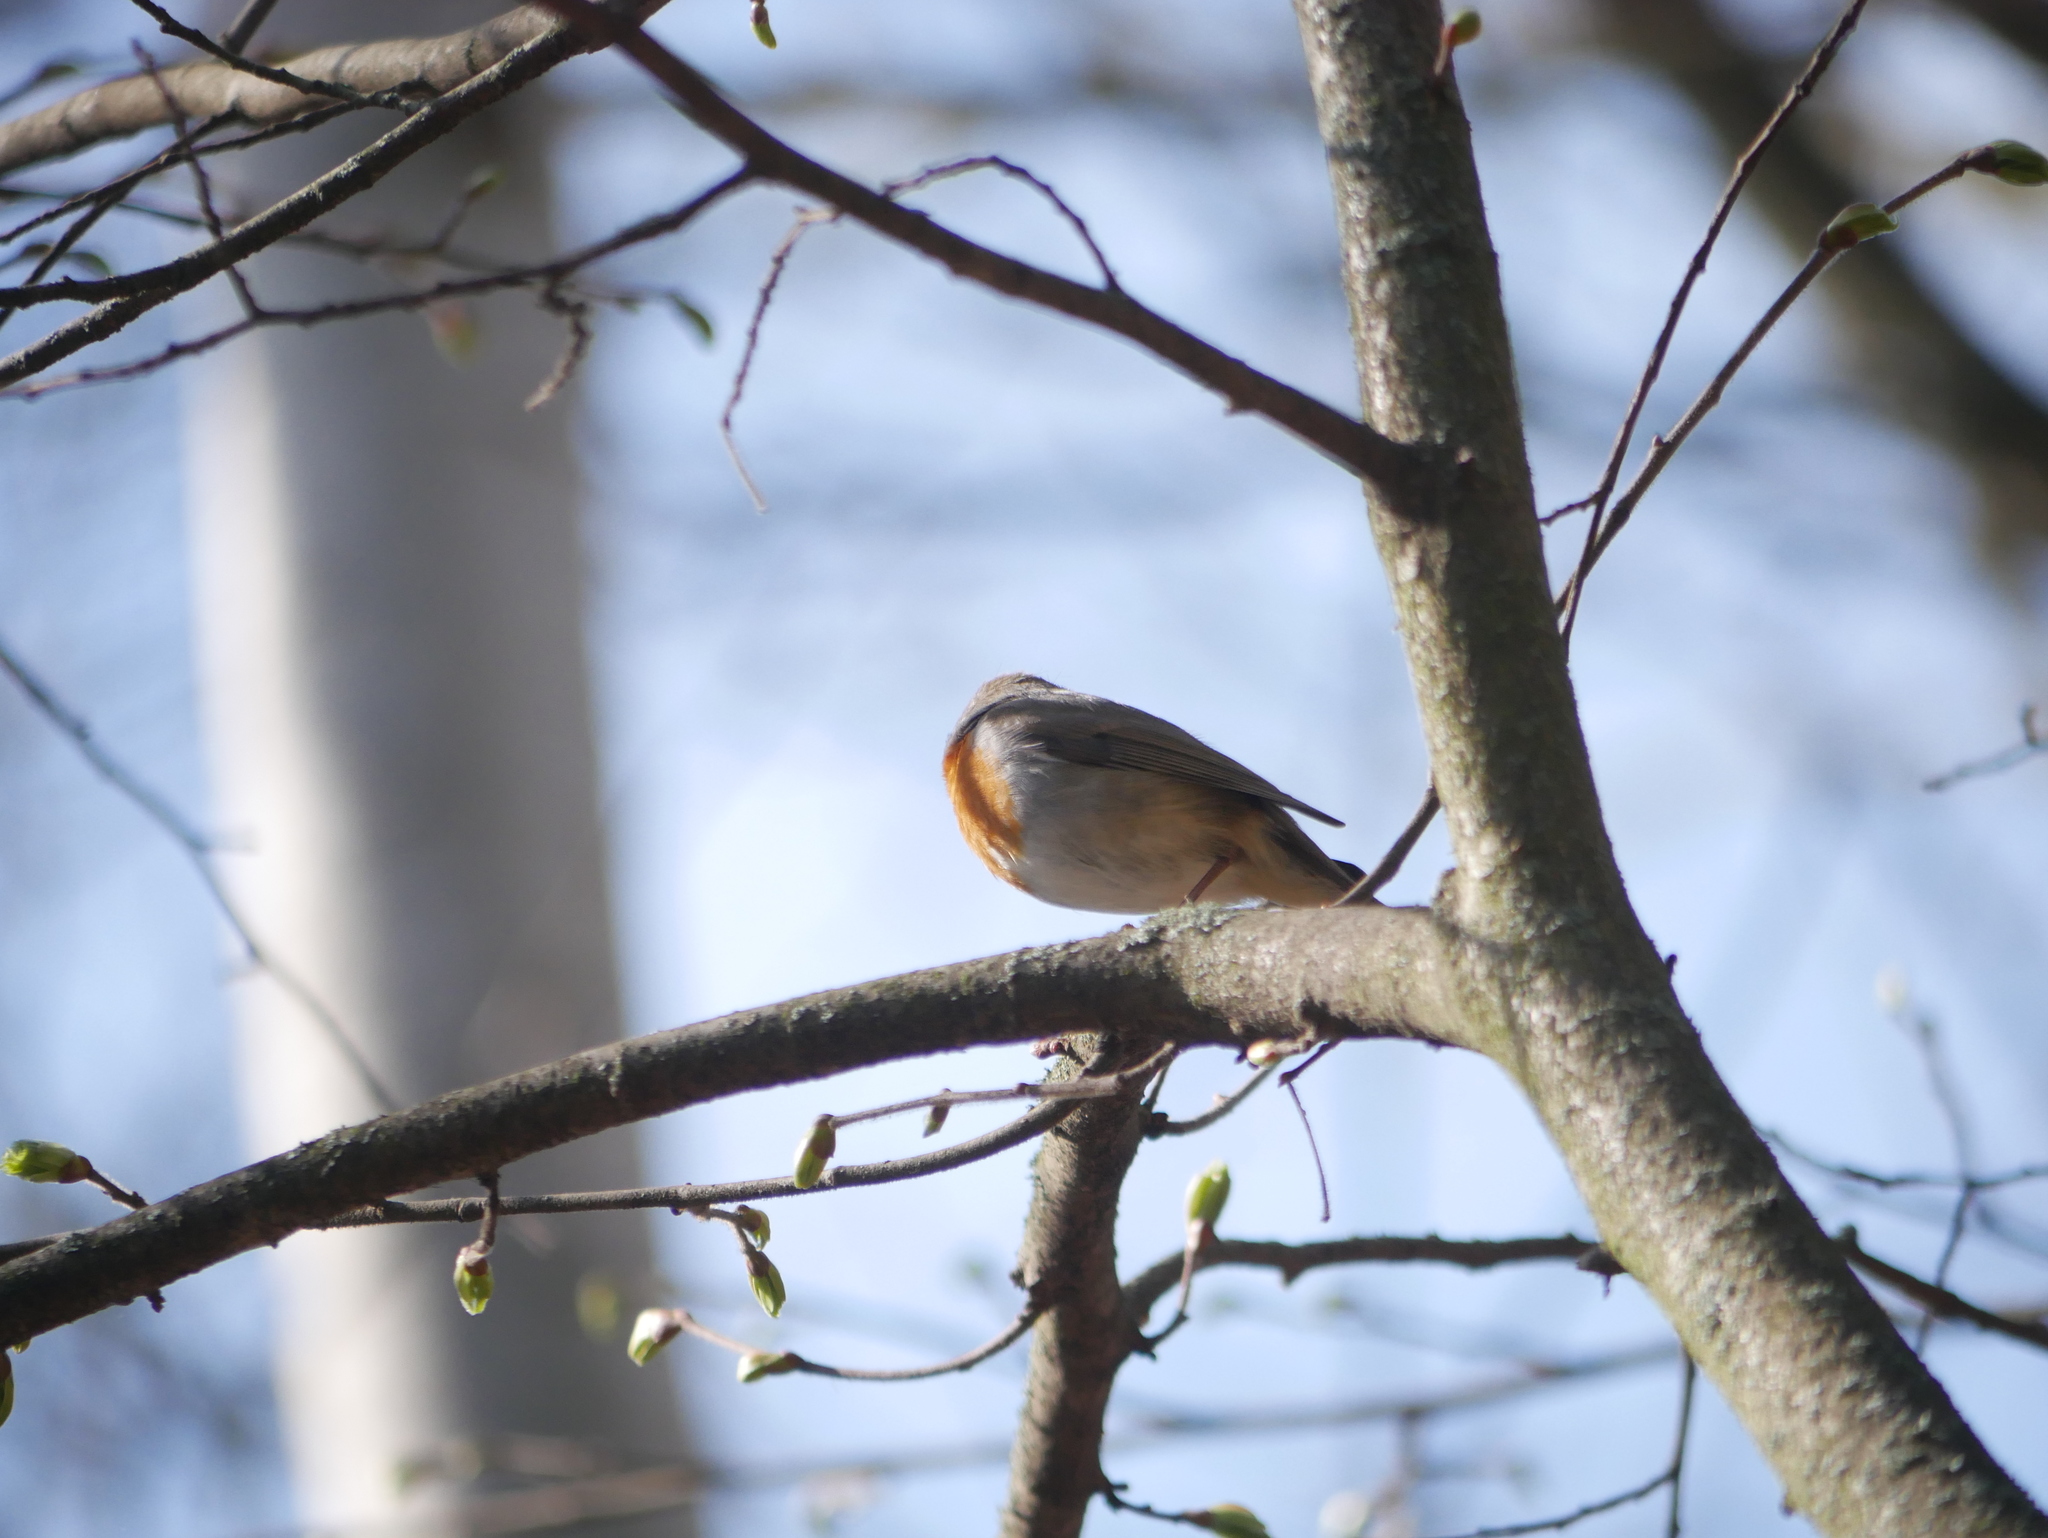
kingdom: Animalia
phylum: Chordata
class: Aves
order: Passeriformes
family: Muscicapidae
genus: Erithacus
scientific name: Erithacus rubecula
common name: European robin
